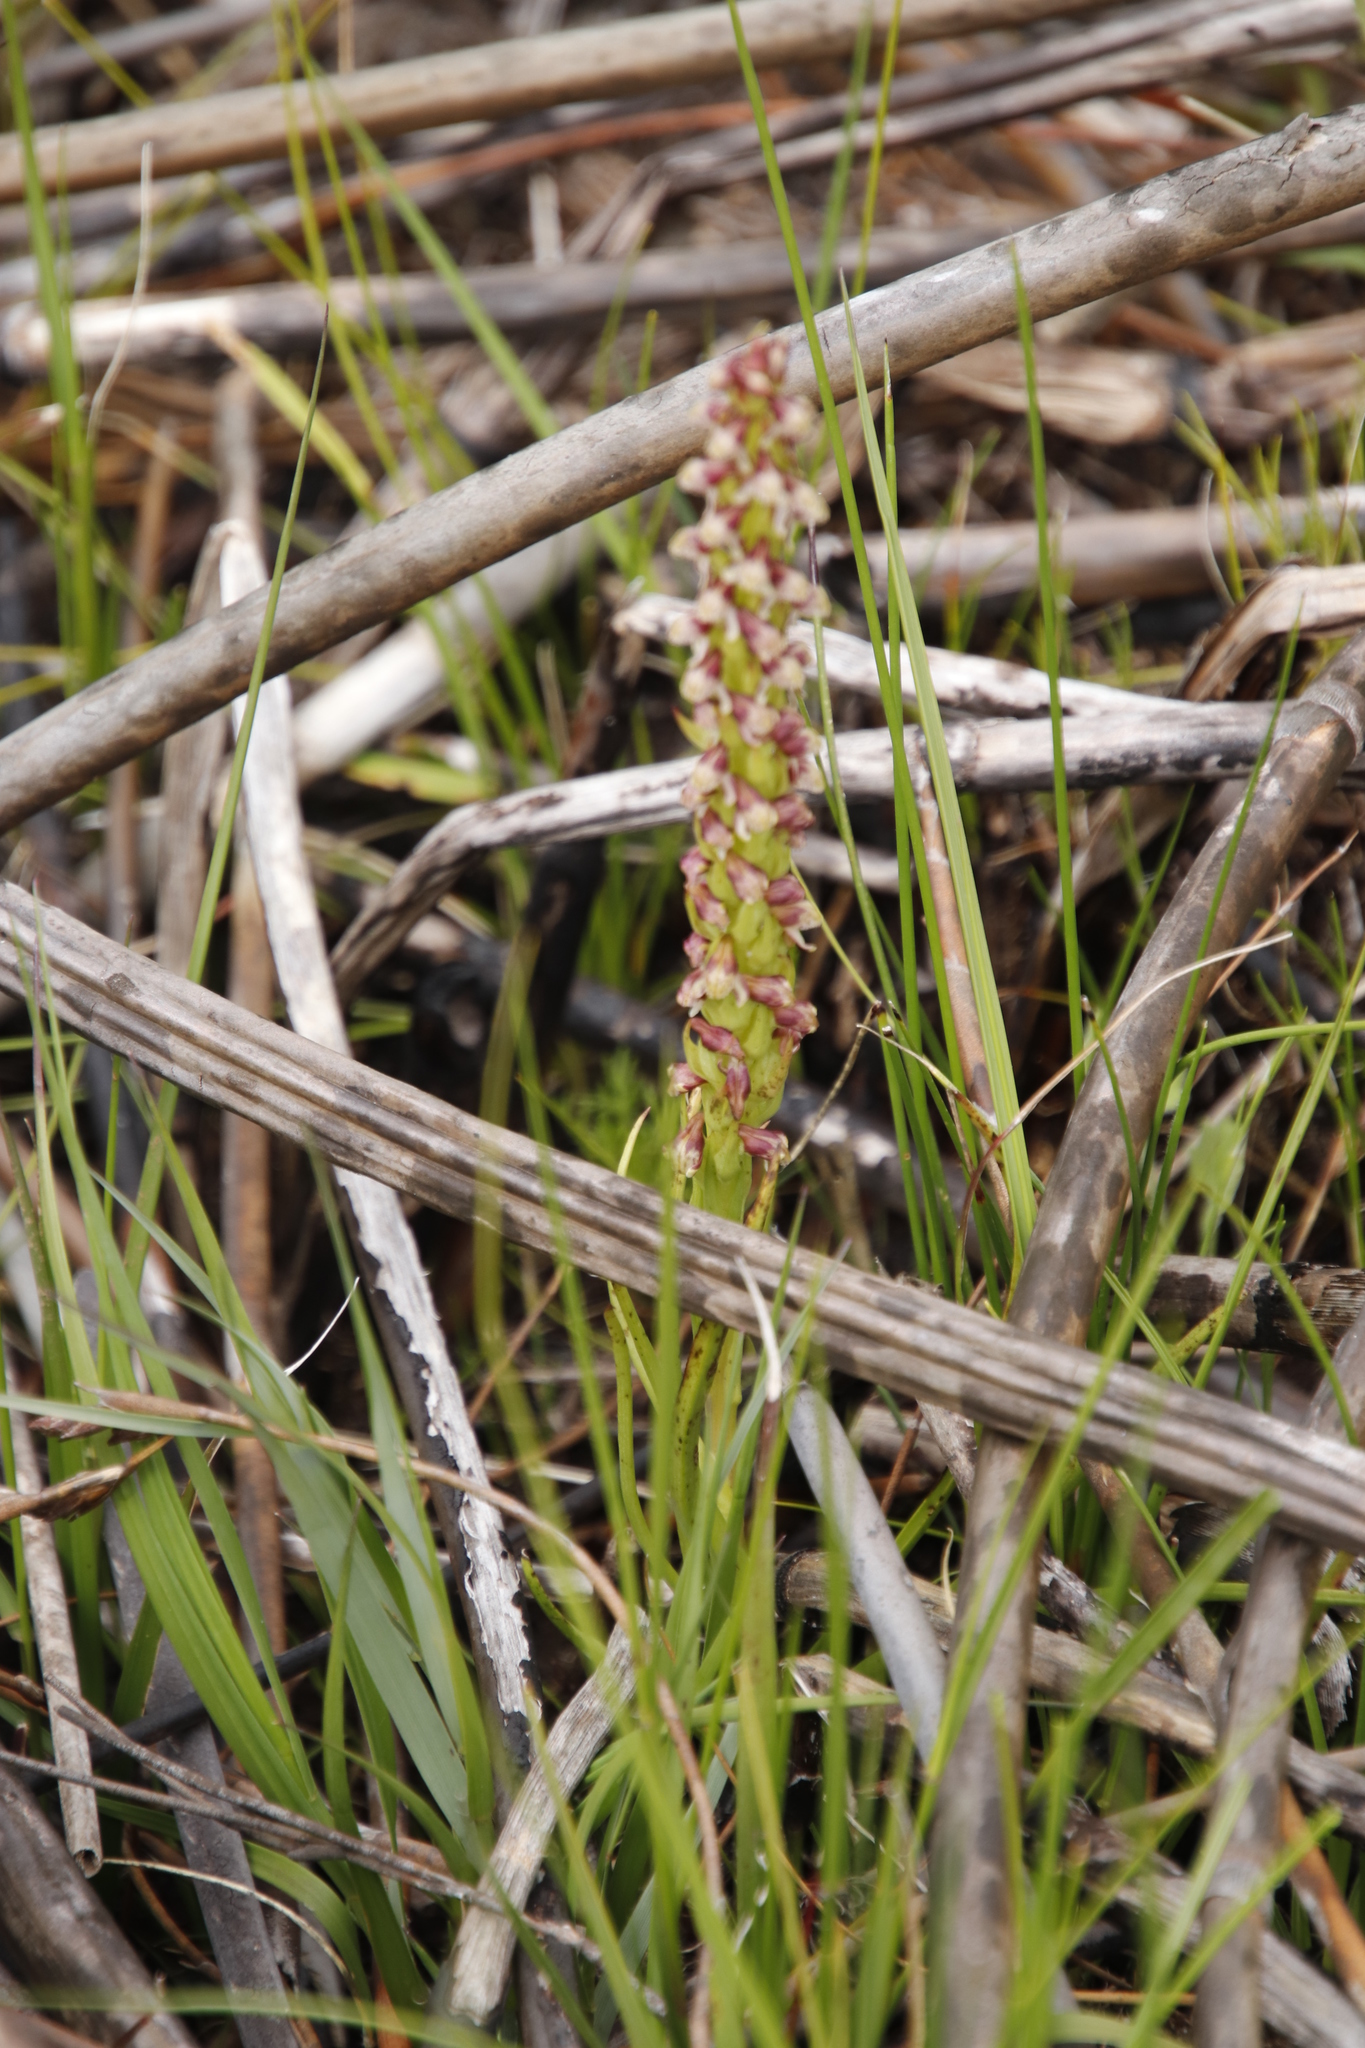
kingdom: Plantae
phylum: Tracheophyta
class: Liliopsida
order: Asparagales
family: Orchidaceae
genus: Disa
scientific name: Disa obtusa
